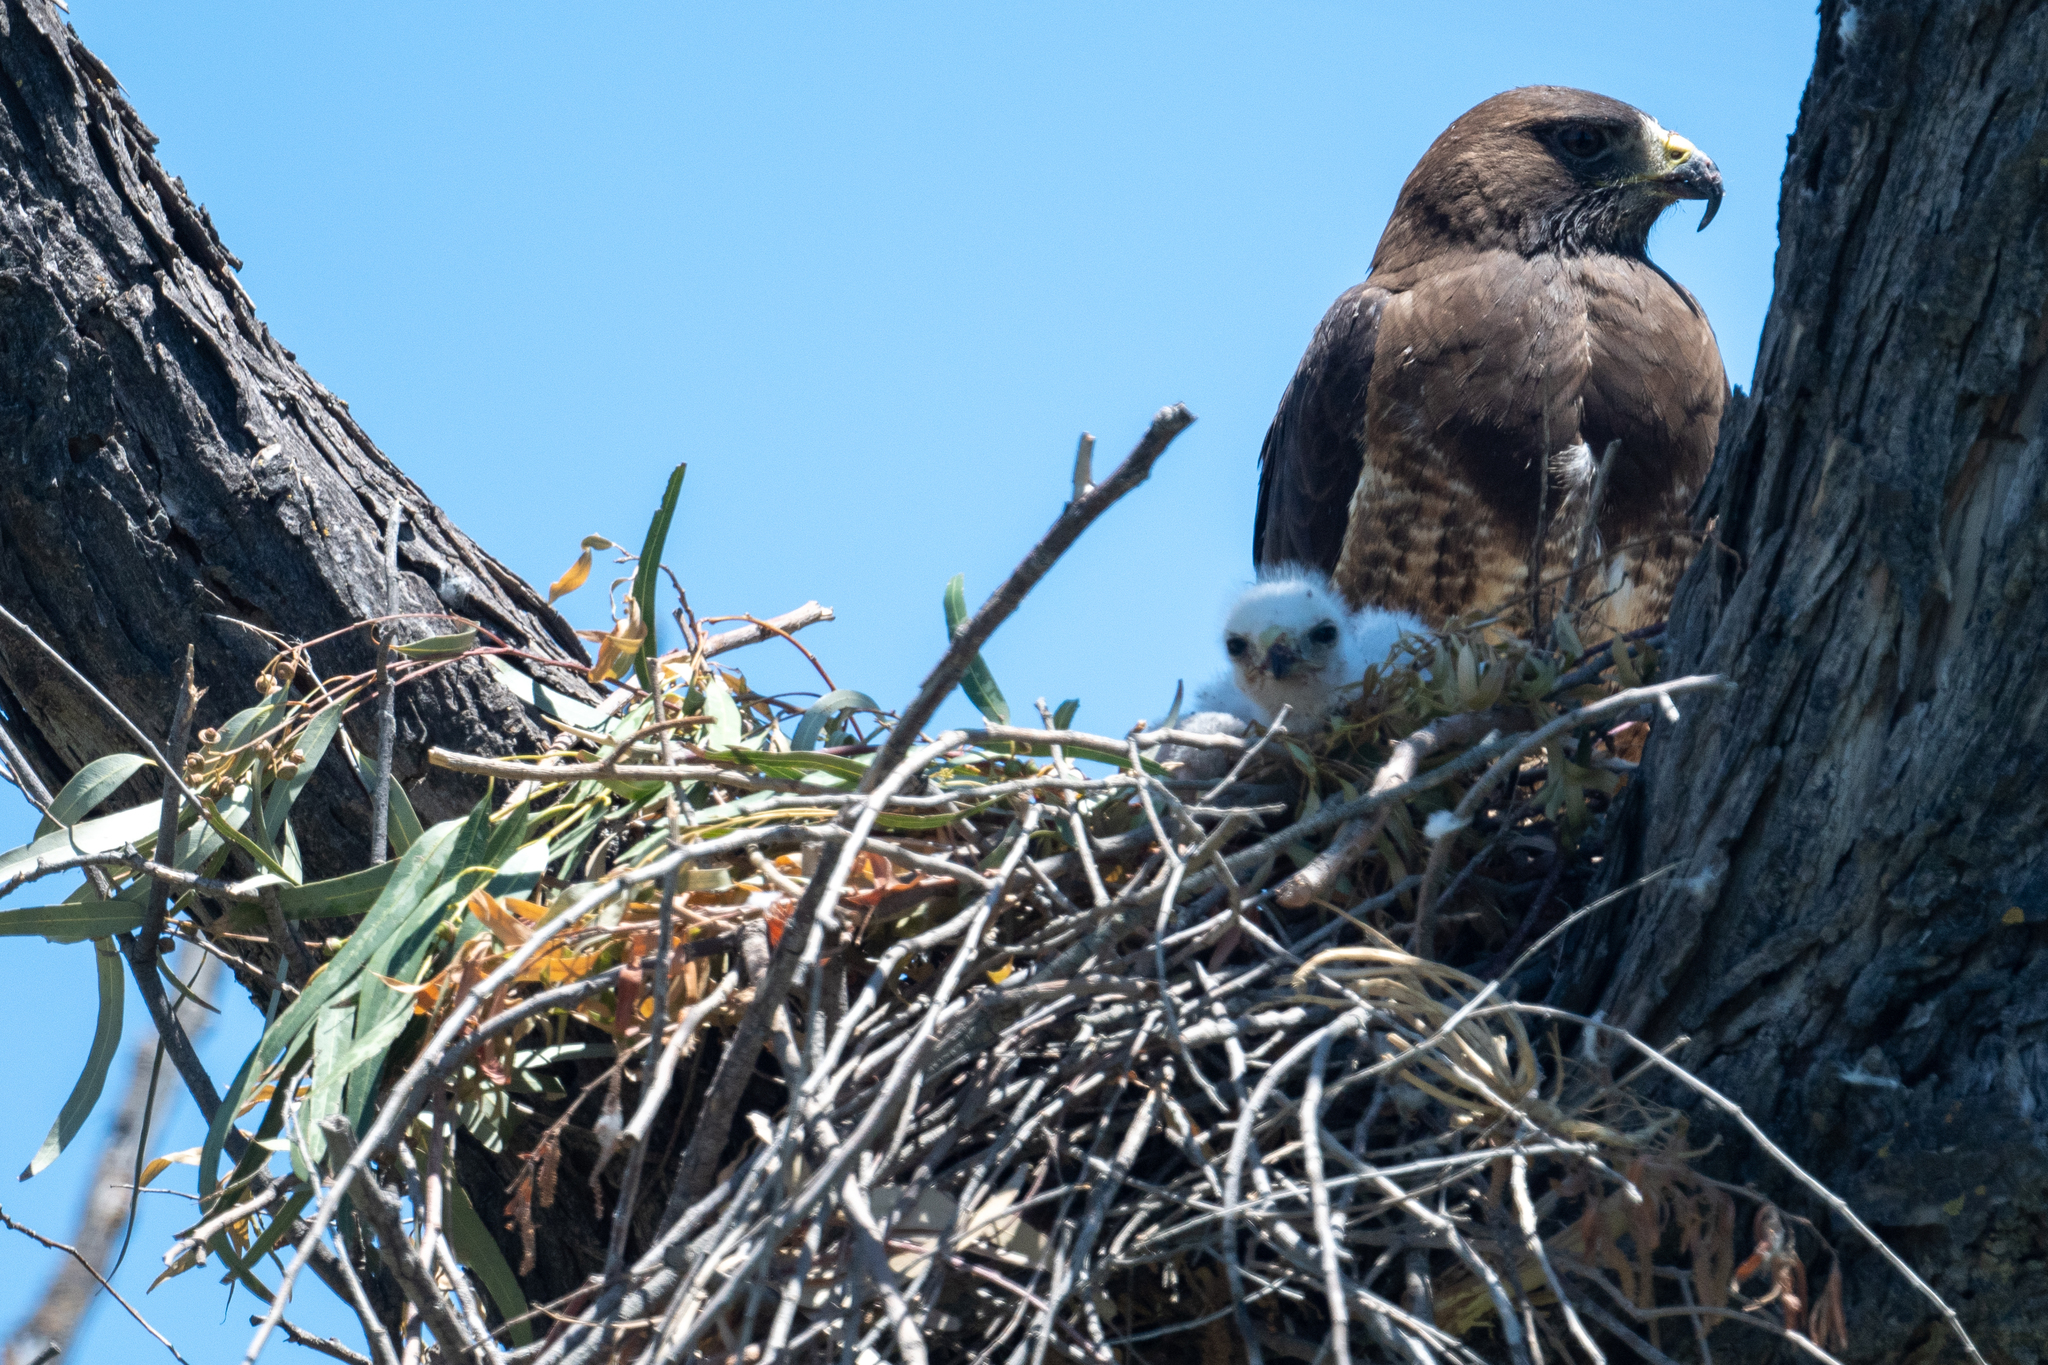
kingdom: Animalia
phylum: Chordata
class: Aves
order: Accipitriformes
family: Accipitridae
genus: Buteo
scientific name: Buteo swainsoni
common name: Swainson's hawk
